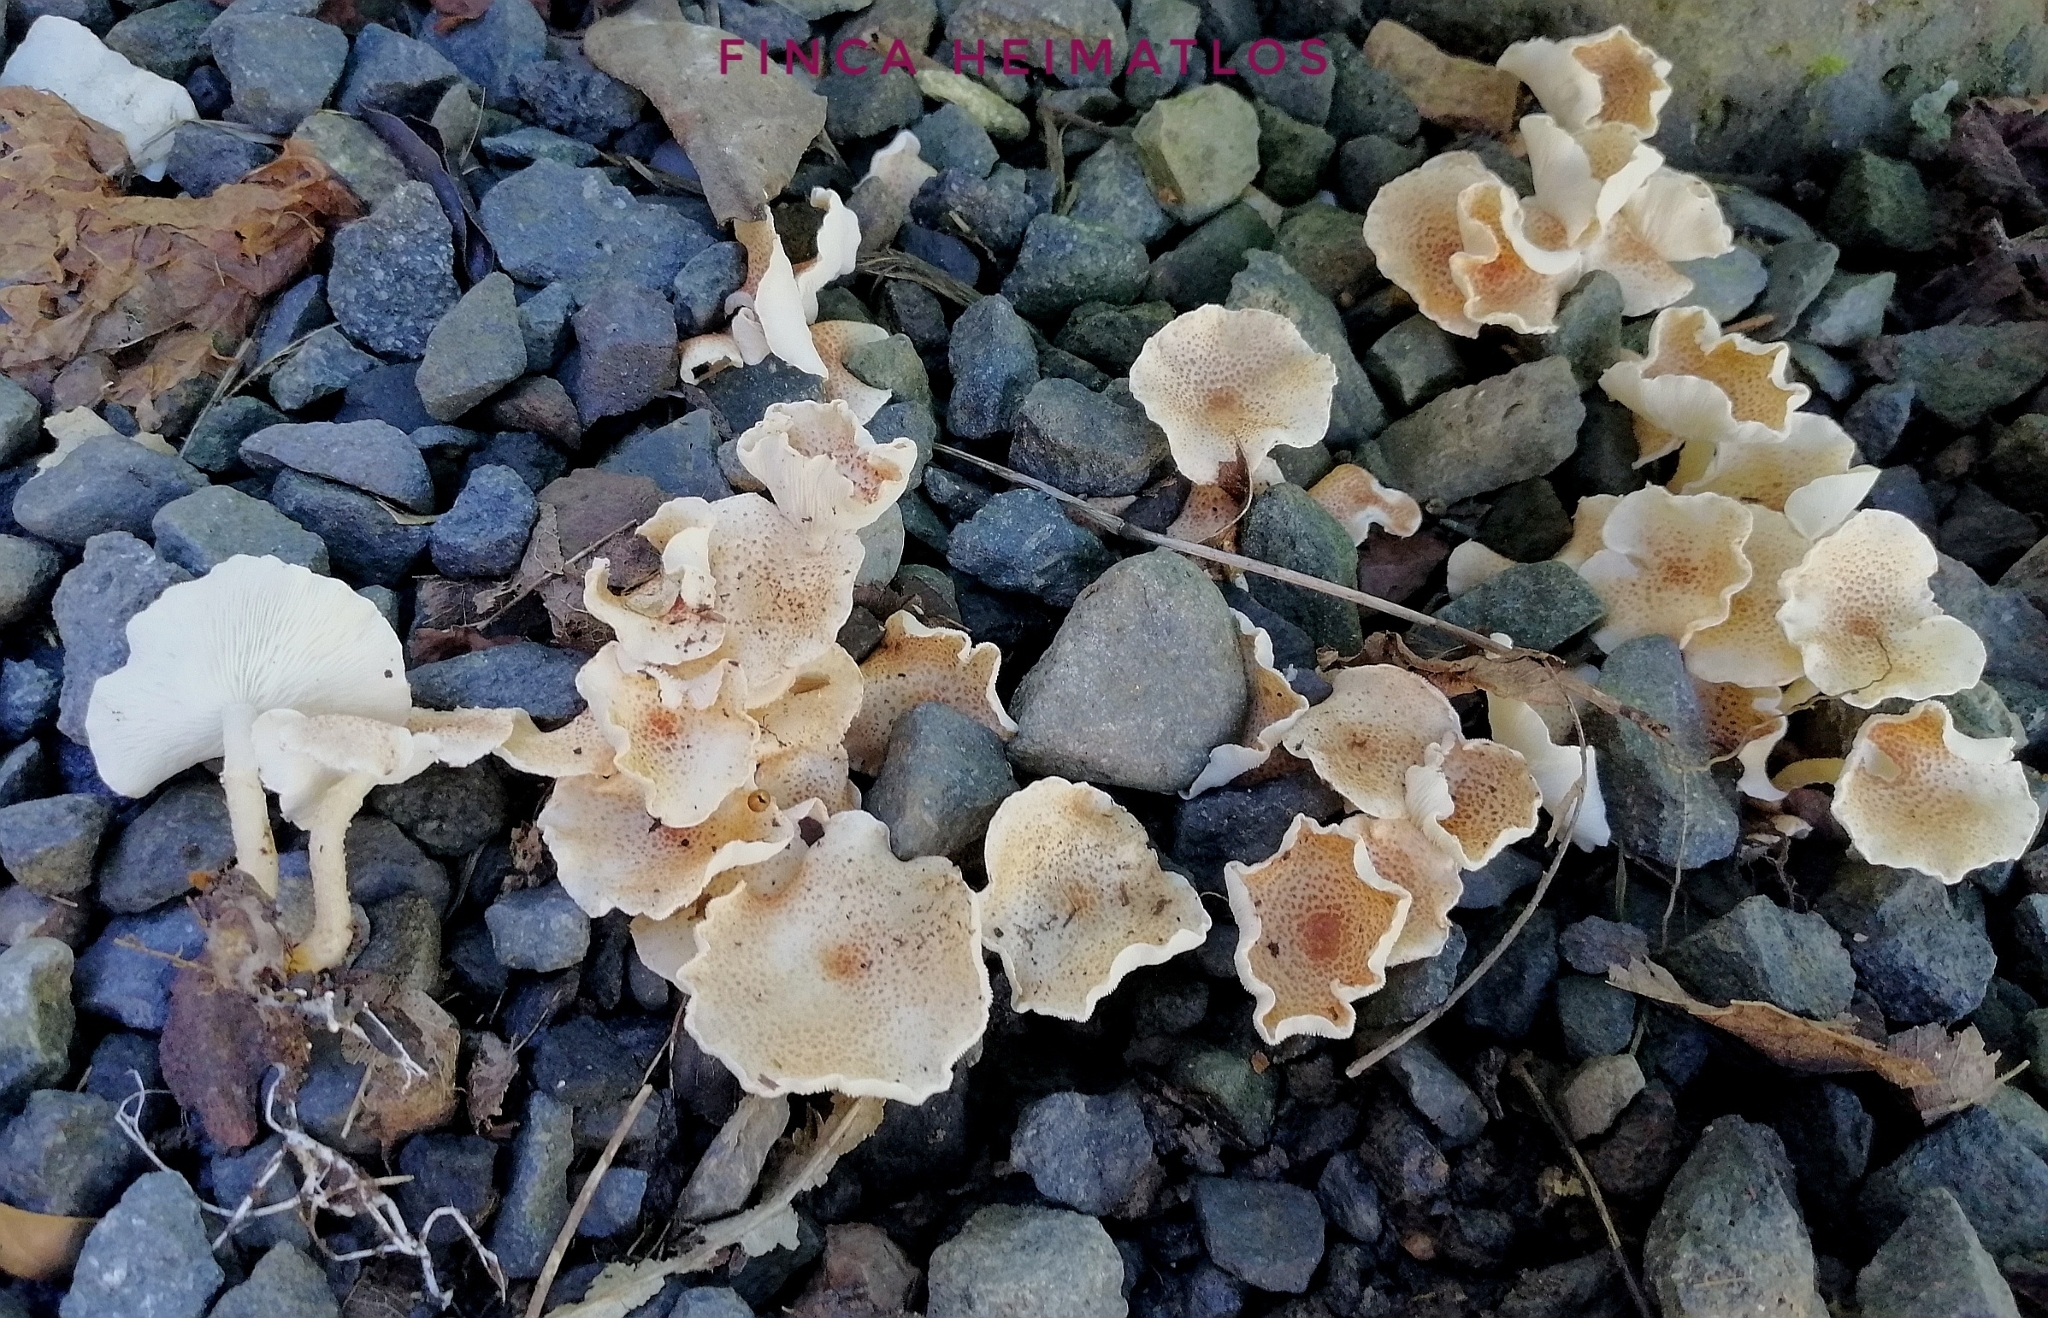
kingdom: Fungi
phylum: Basidiomycota
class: Agaricomycetes
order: Agaricales
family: Agaricaceae
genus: Ripartitella
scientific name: Ripartitella brasiliensis
